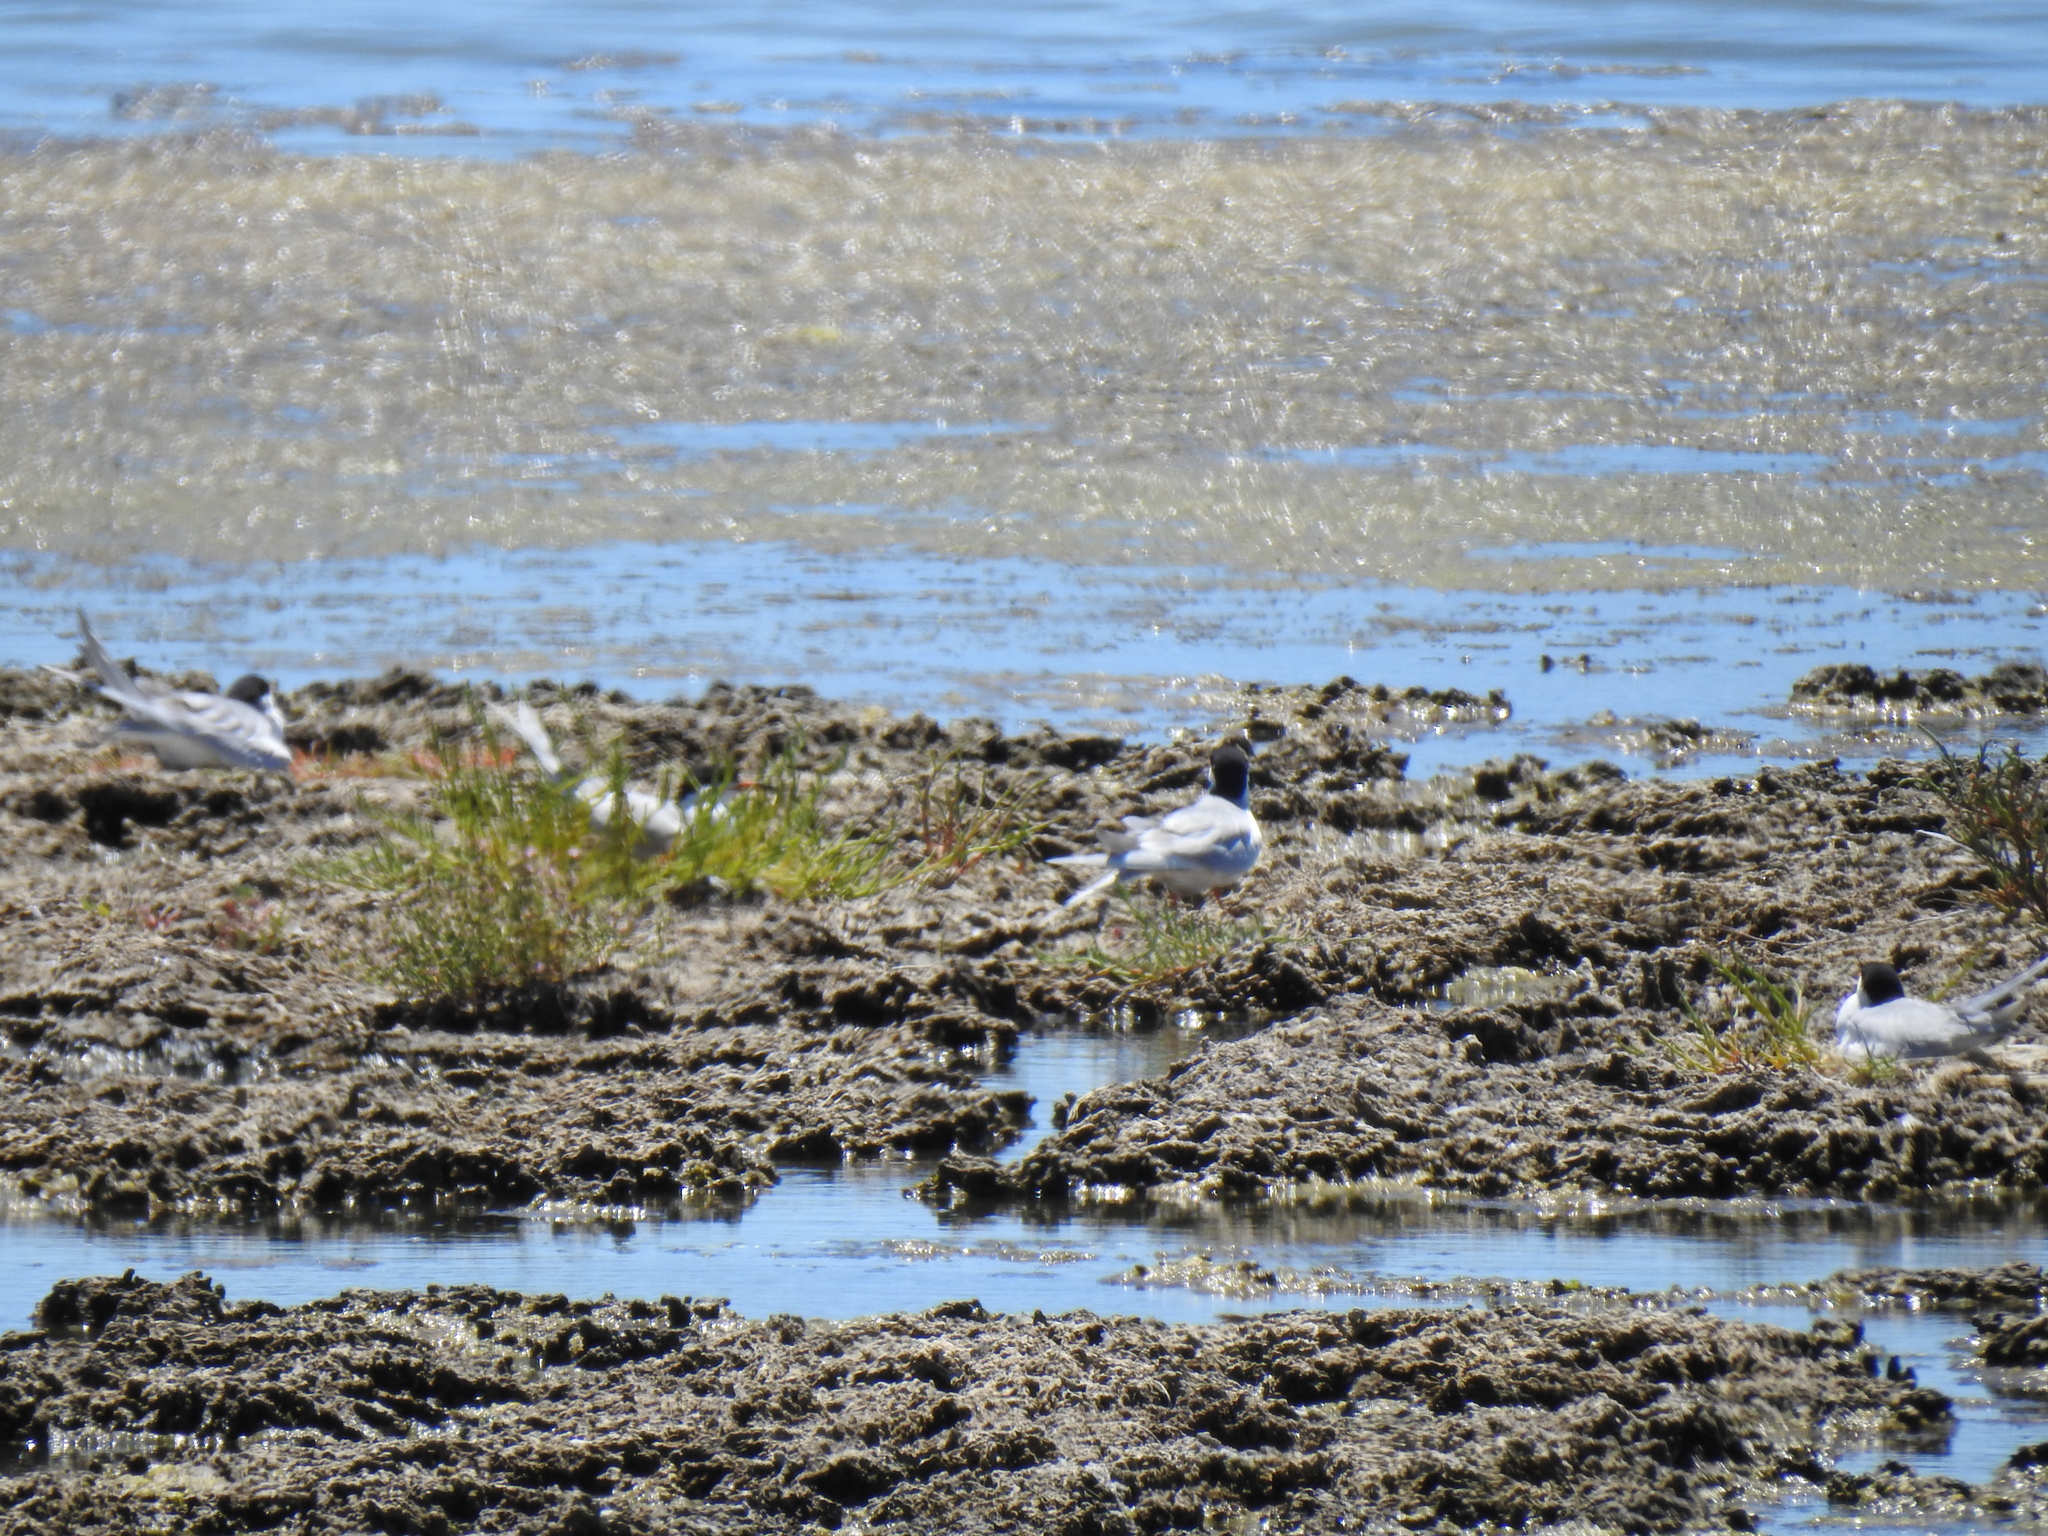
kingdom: Animalia
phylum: Chordata
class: Aves
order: Charadriiformes
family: Laridae
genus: Sterna
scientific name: Sterna forsteri
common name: Forster's tern
